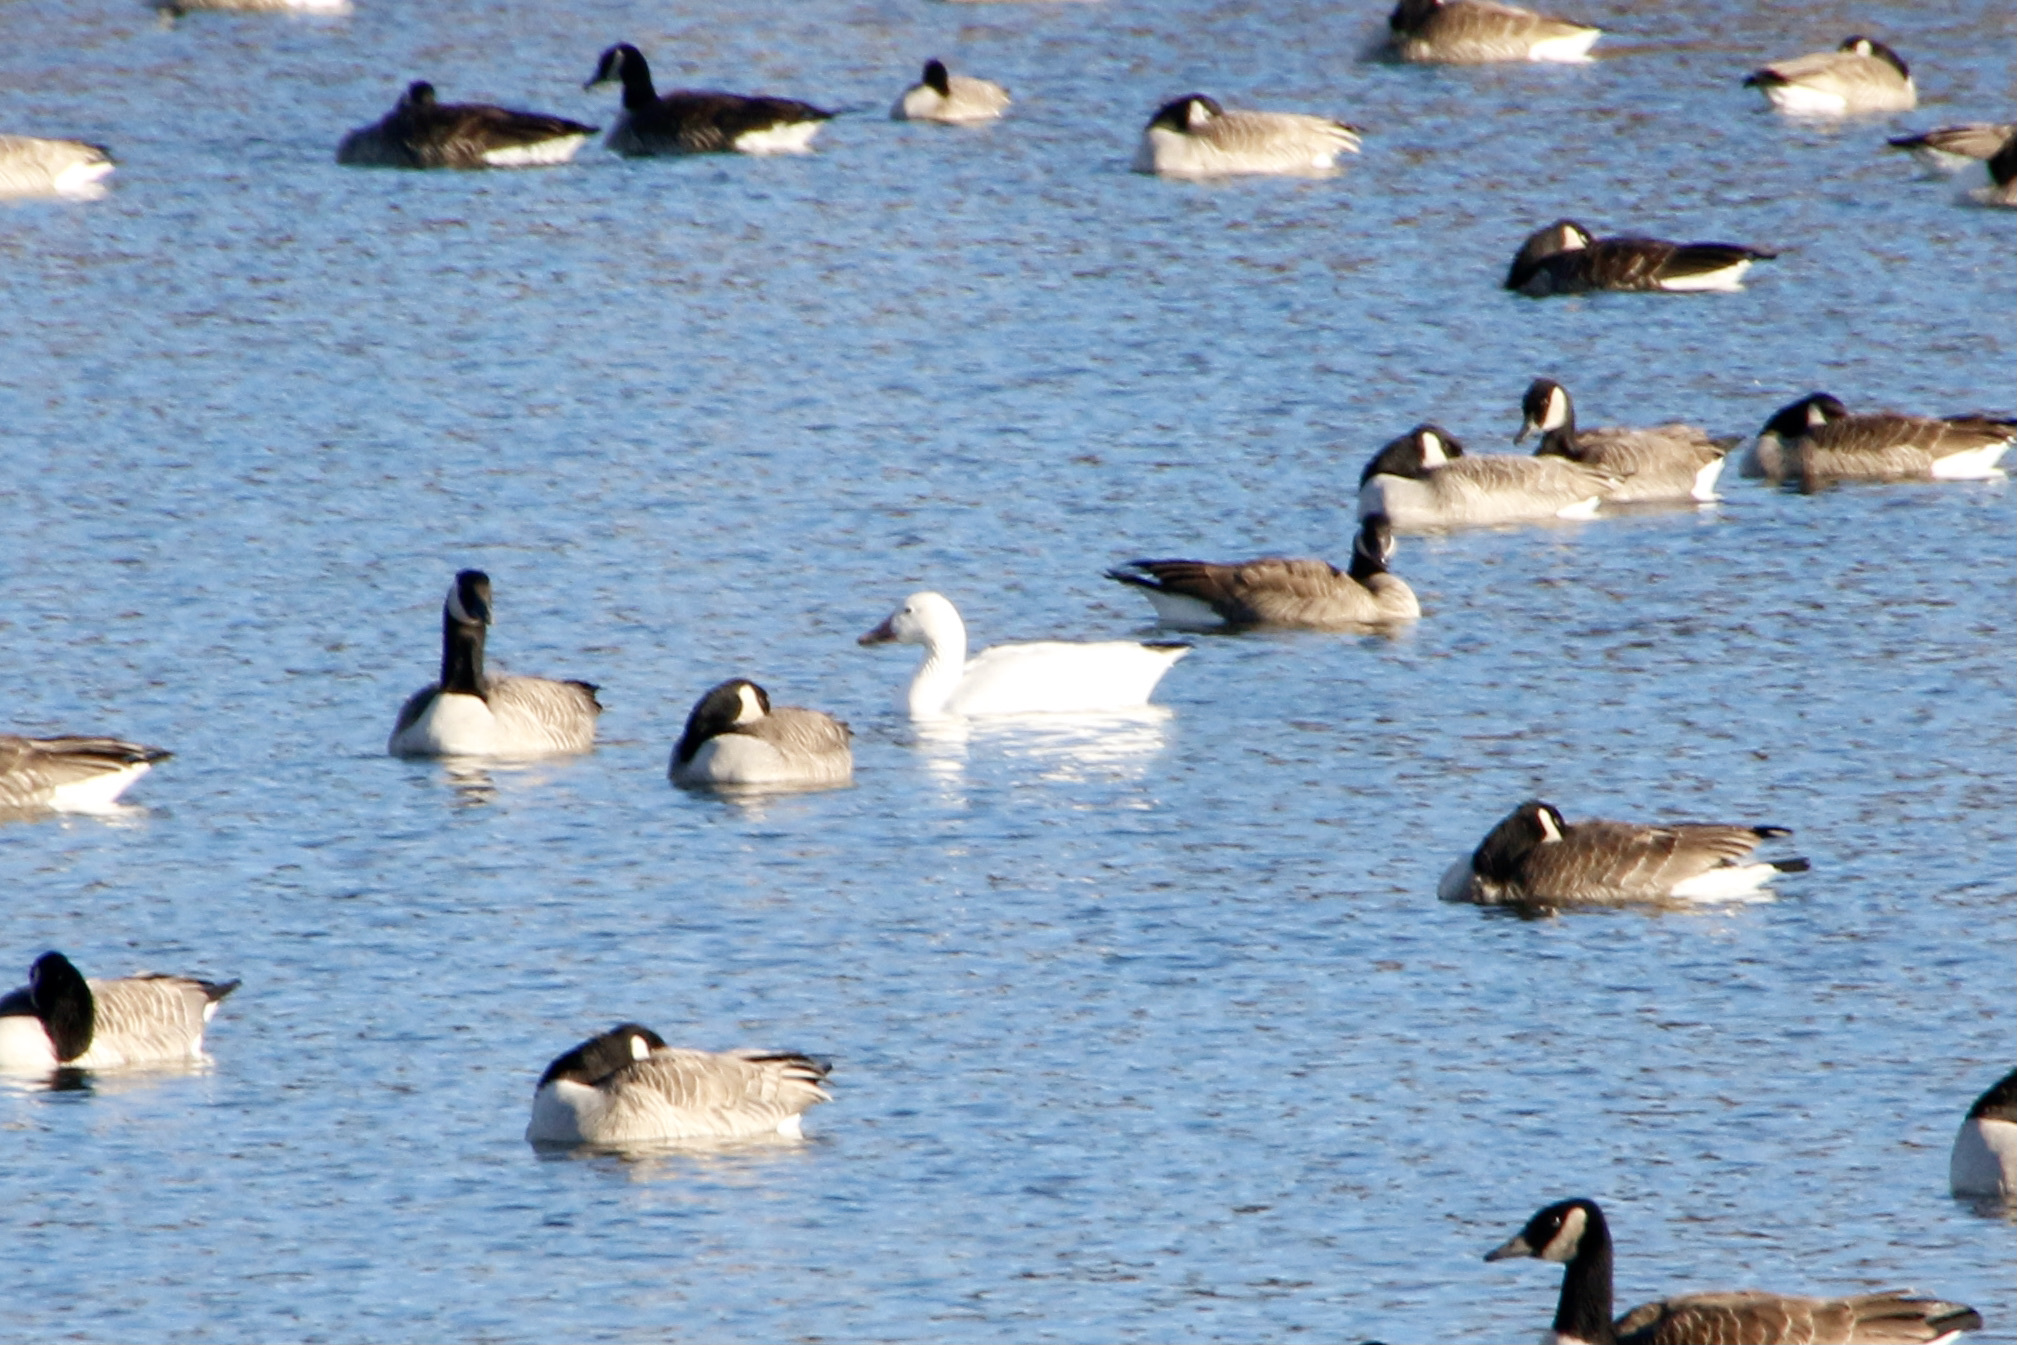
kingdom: Animalia
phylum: Chordata
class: Aves
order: Anseriformes
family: Anatidae
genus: Anser
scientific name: Anser caerulescens
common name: Snow goose
